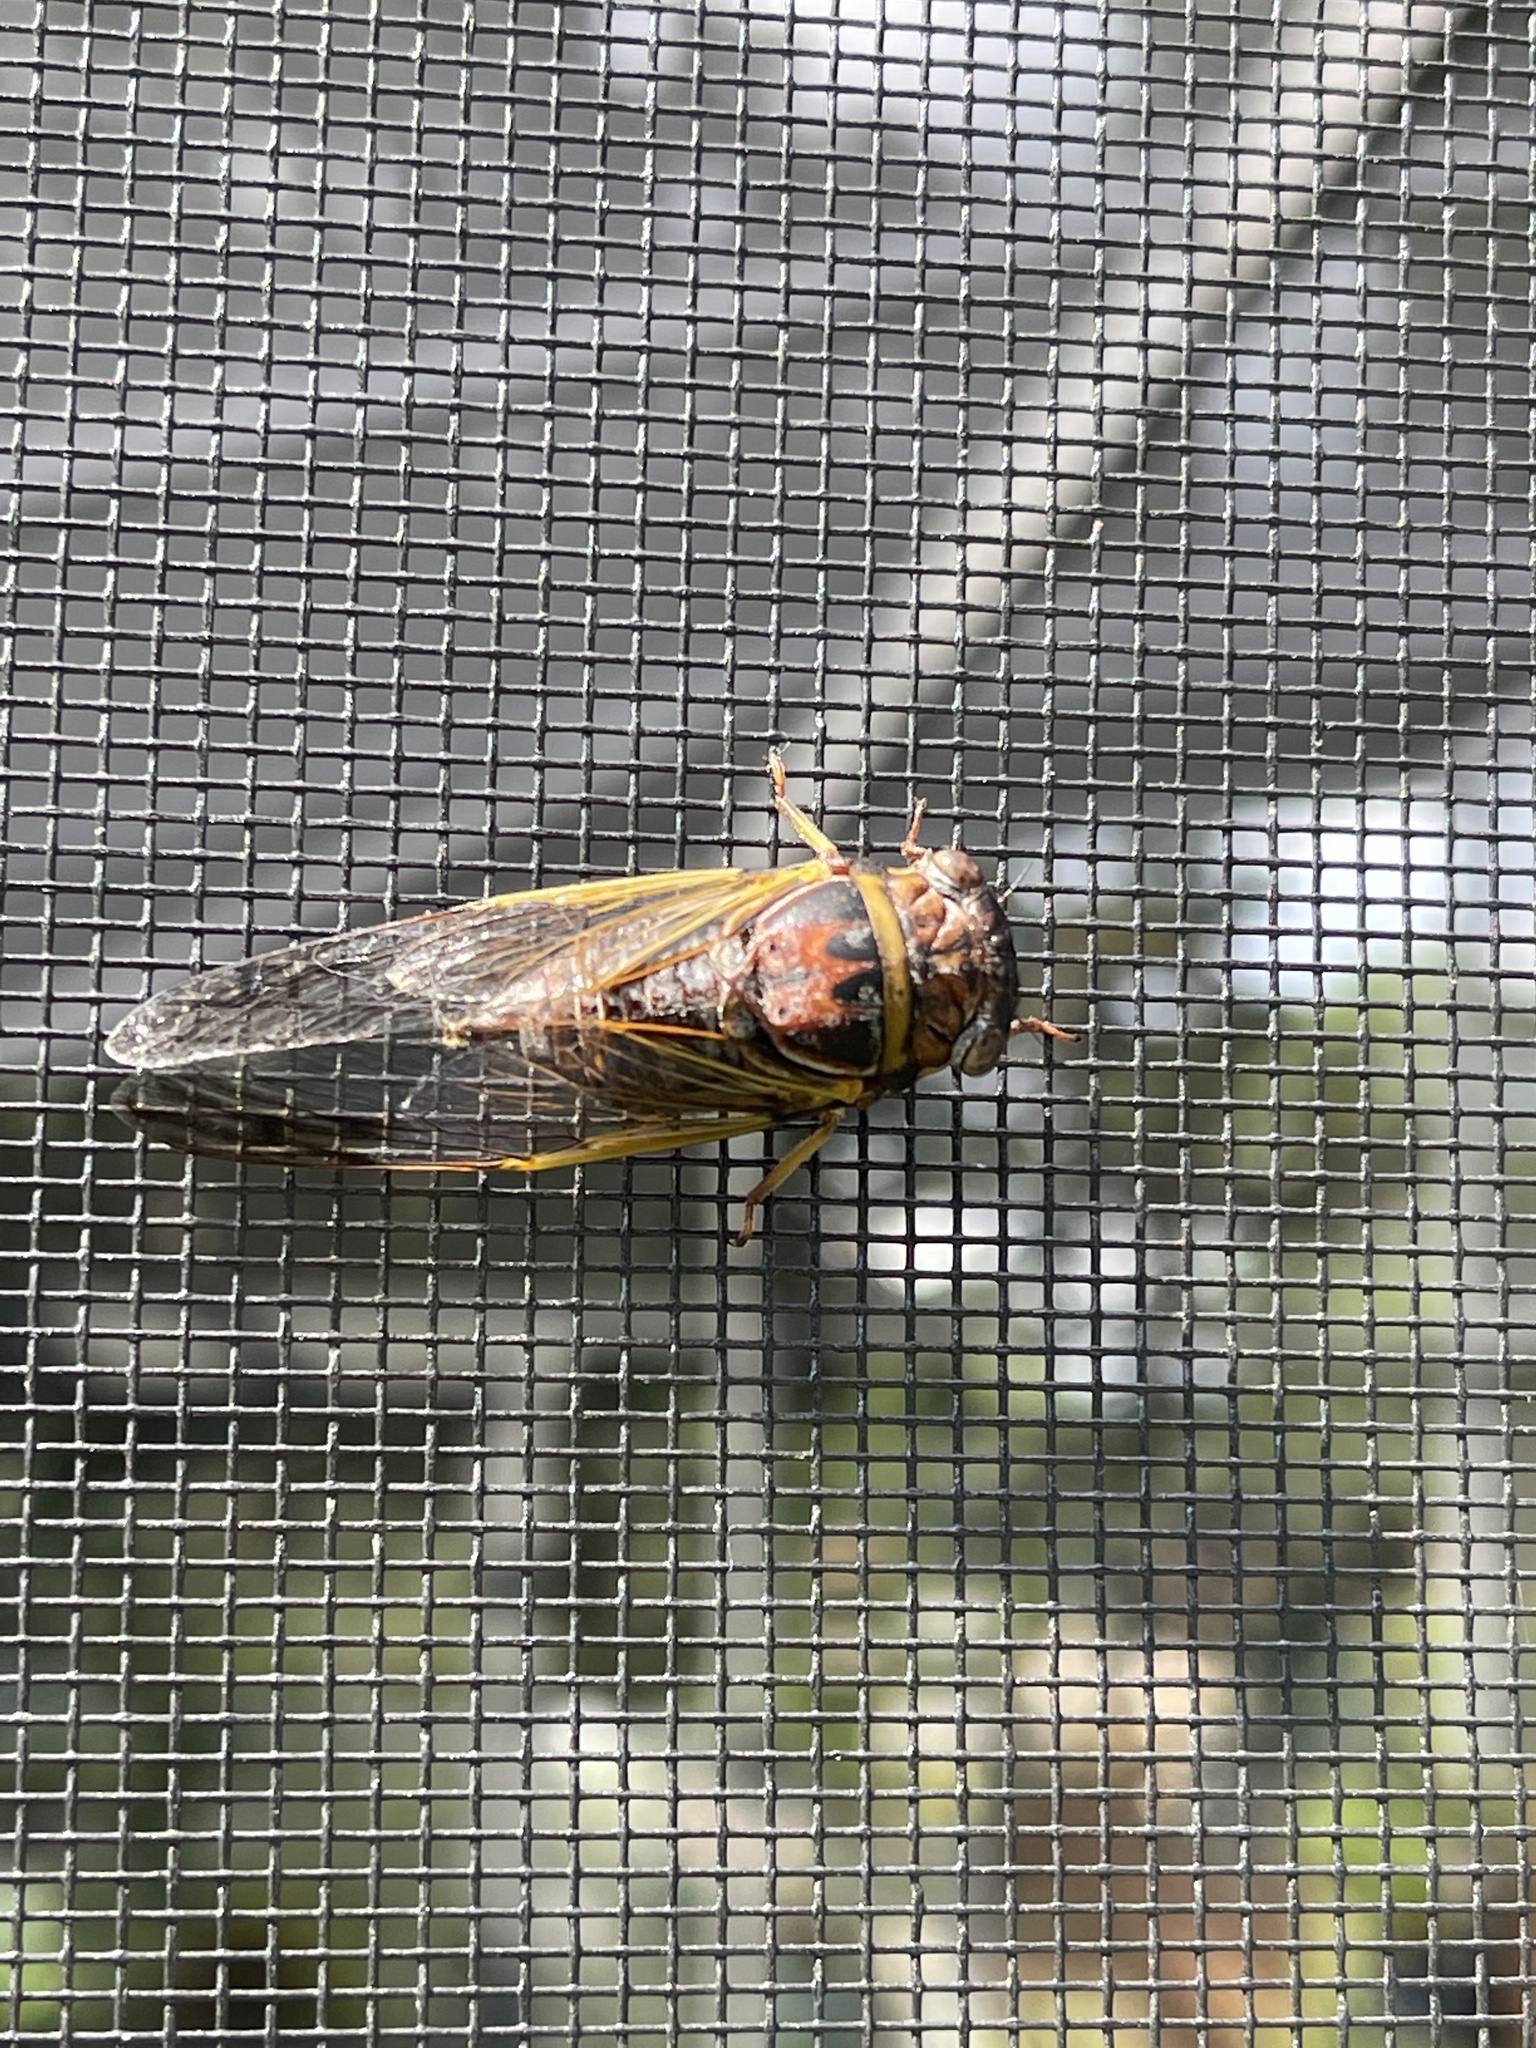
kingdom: Animalia
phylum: Arthropoda
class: Insecta
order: Hemiptera
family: Cicadidae
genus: Diceroprocta
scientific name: Diceroprocta olympusa
